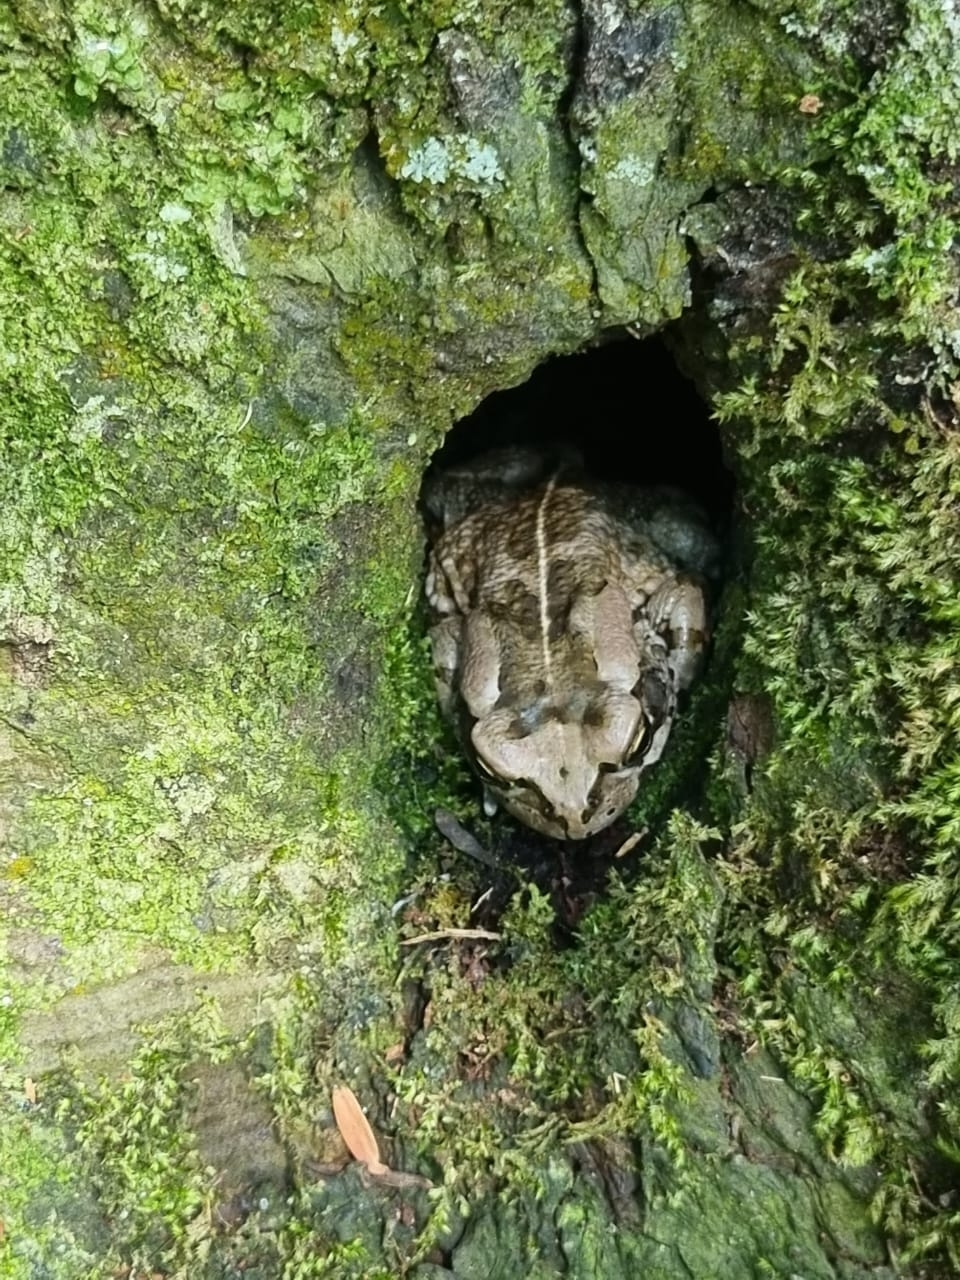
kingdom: Animalia
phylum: Chordata
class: Amphibia
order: Anura
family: Bufonidae
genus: Sclerophrys
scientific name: Sclerophrys capensis
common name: Ranger’s toad
